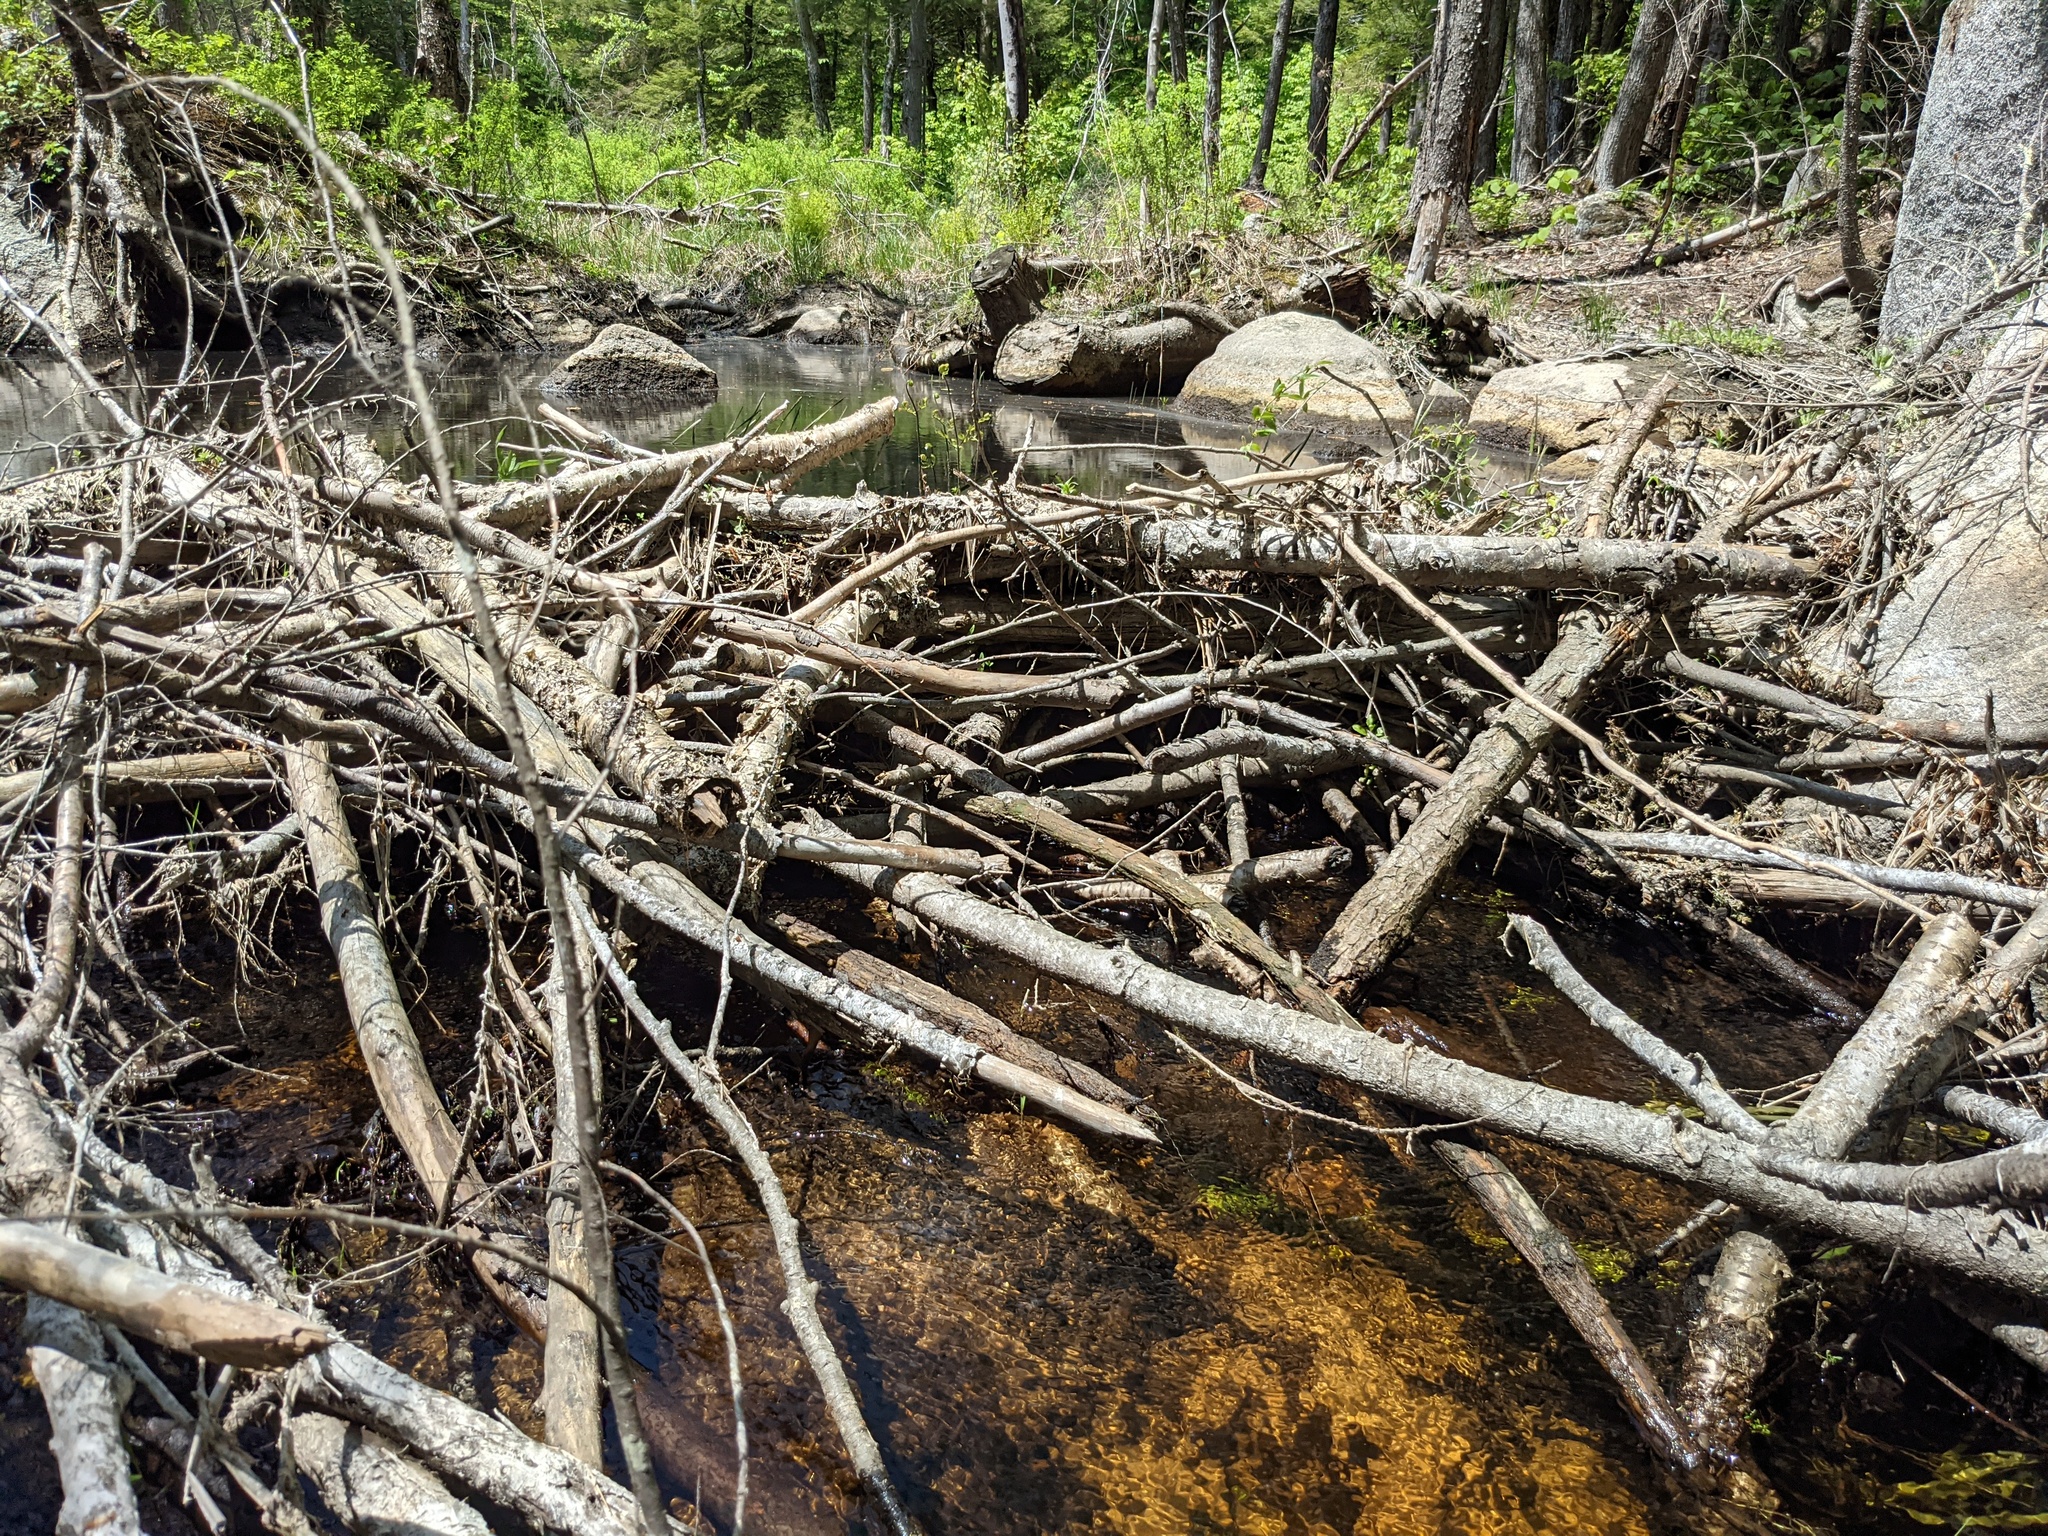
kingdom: Animalia
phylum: Chordata
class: Mammalia
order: Rodentia
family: Castoridae
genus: Castor
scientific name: Castor canadensis
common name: American beaver
